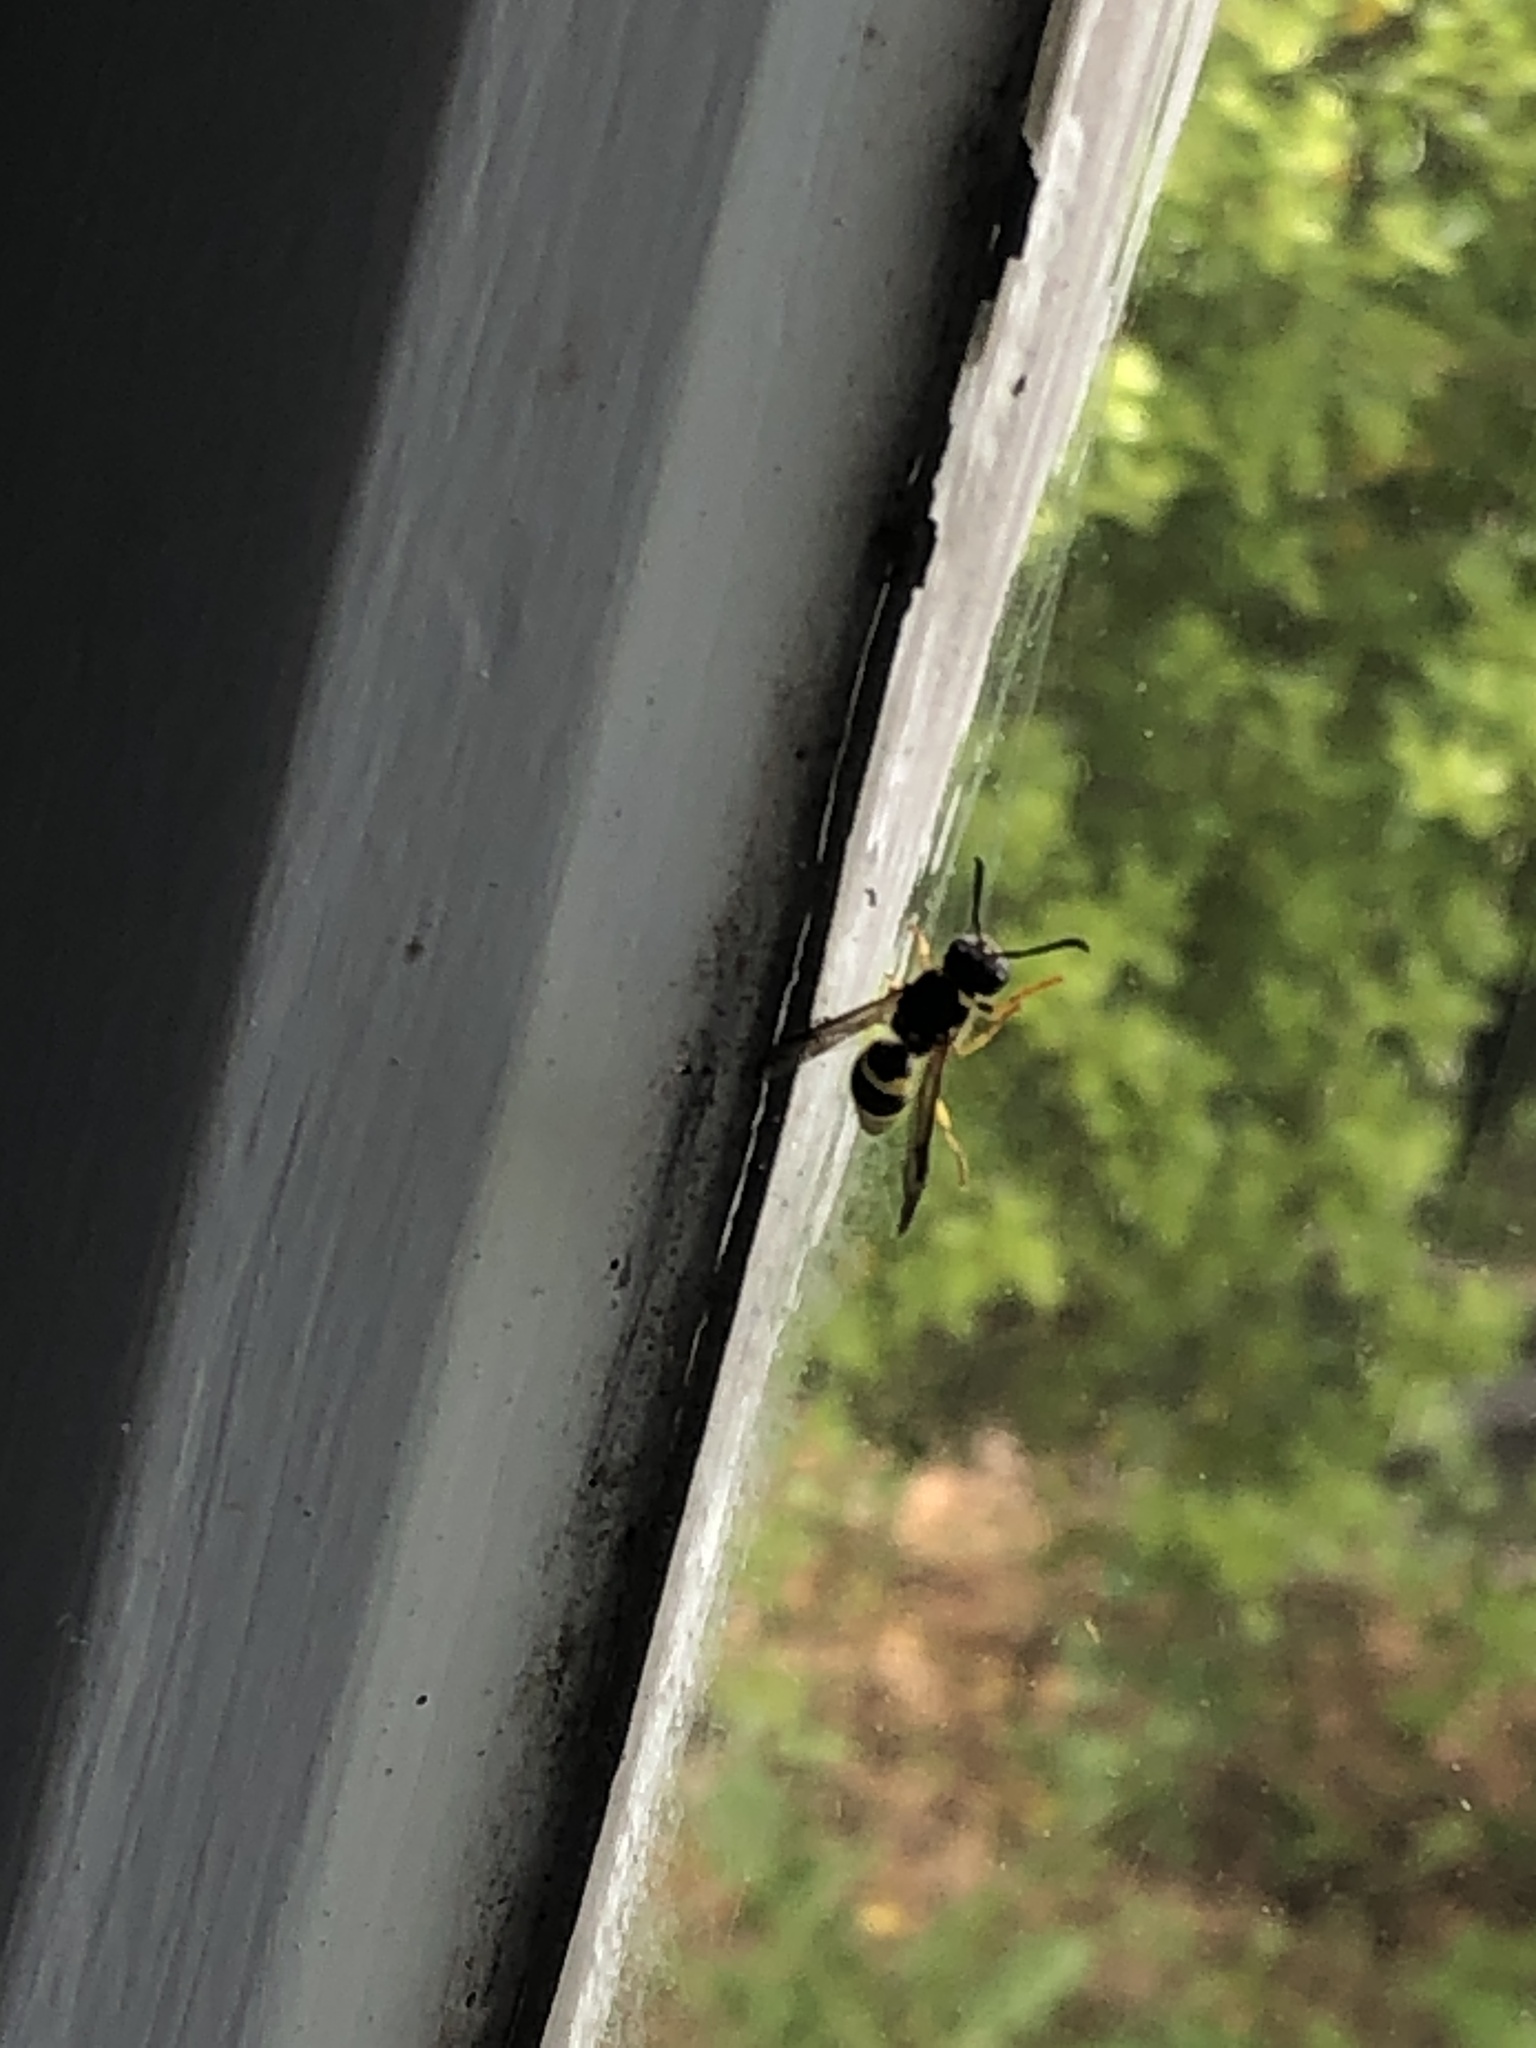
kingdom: Animalia
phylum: Arthropoda
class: Insecta
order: Hymenoptera
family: Vespidae
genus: Ancistrocerus
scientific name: Ancistrocerus gazella
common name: European tube wasp
